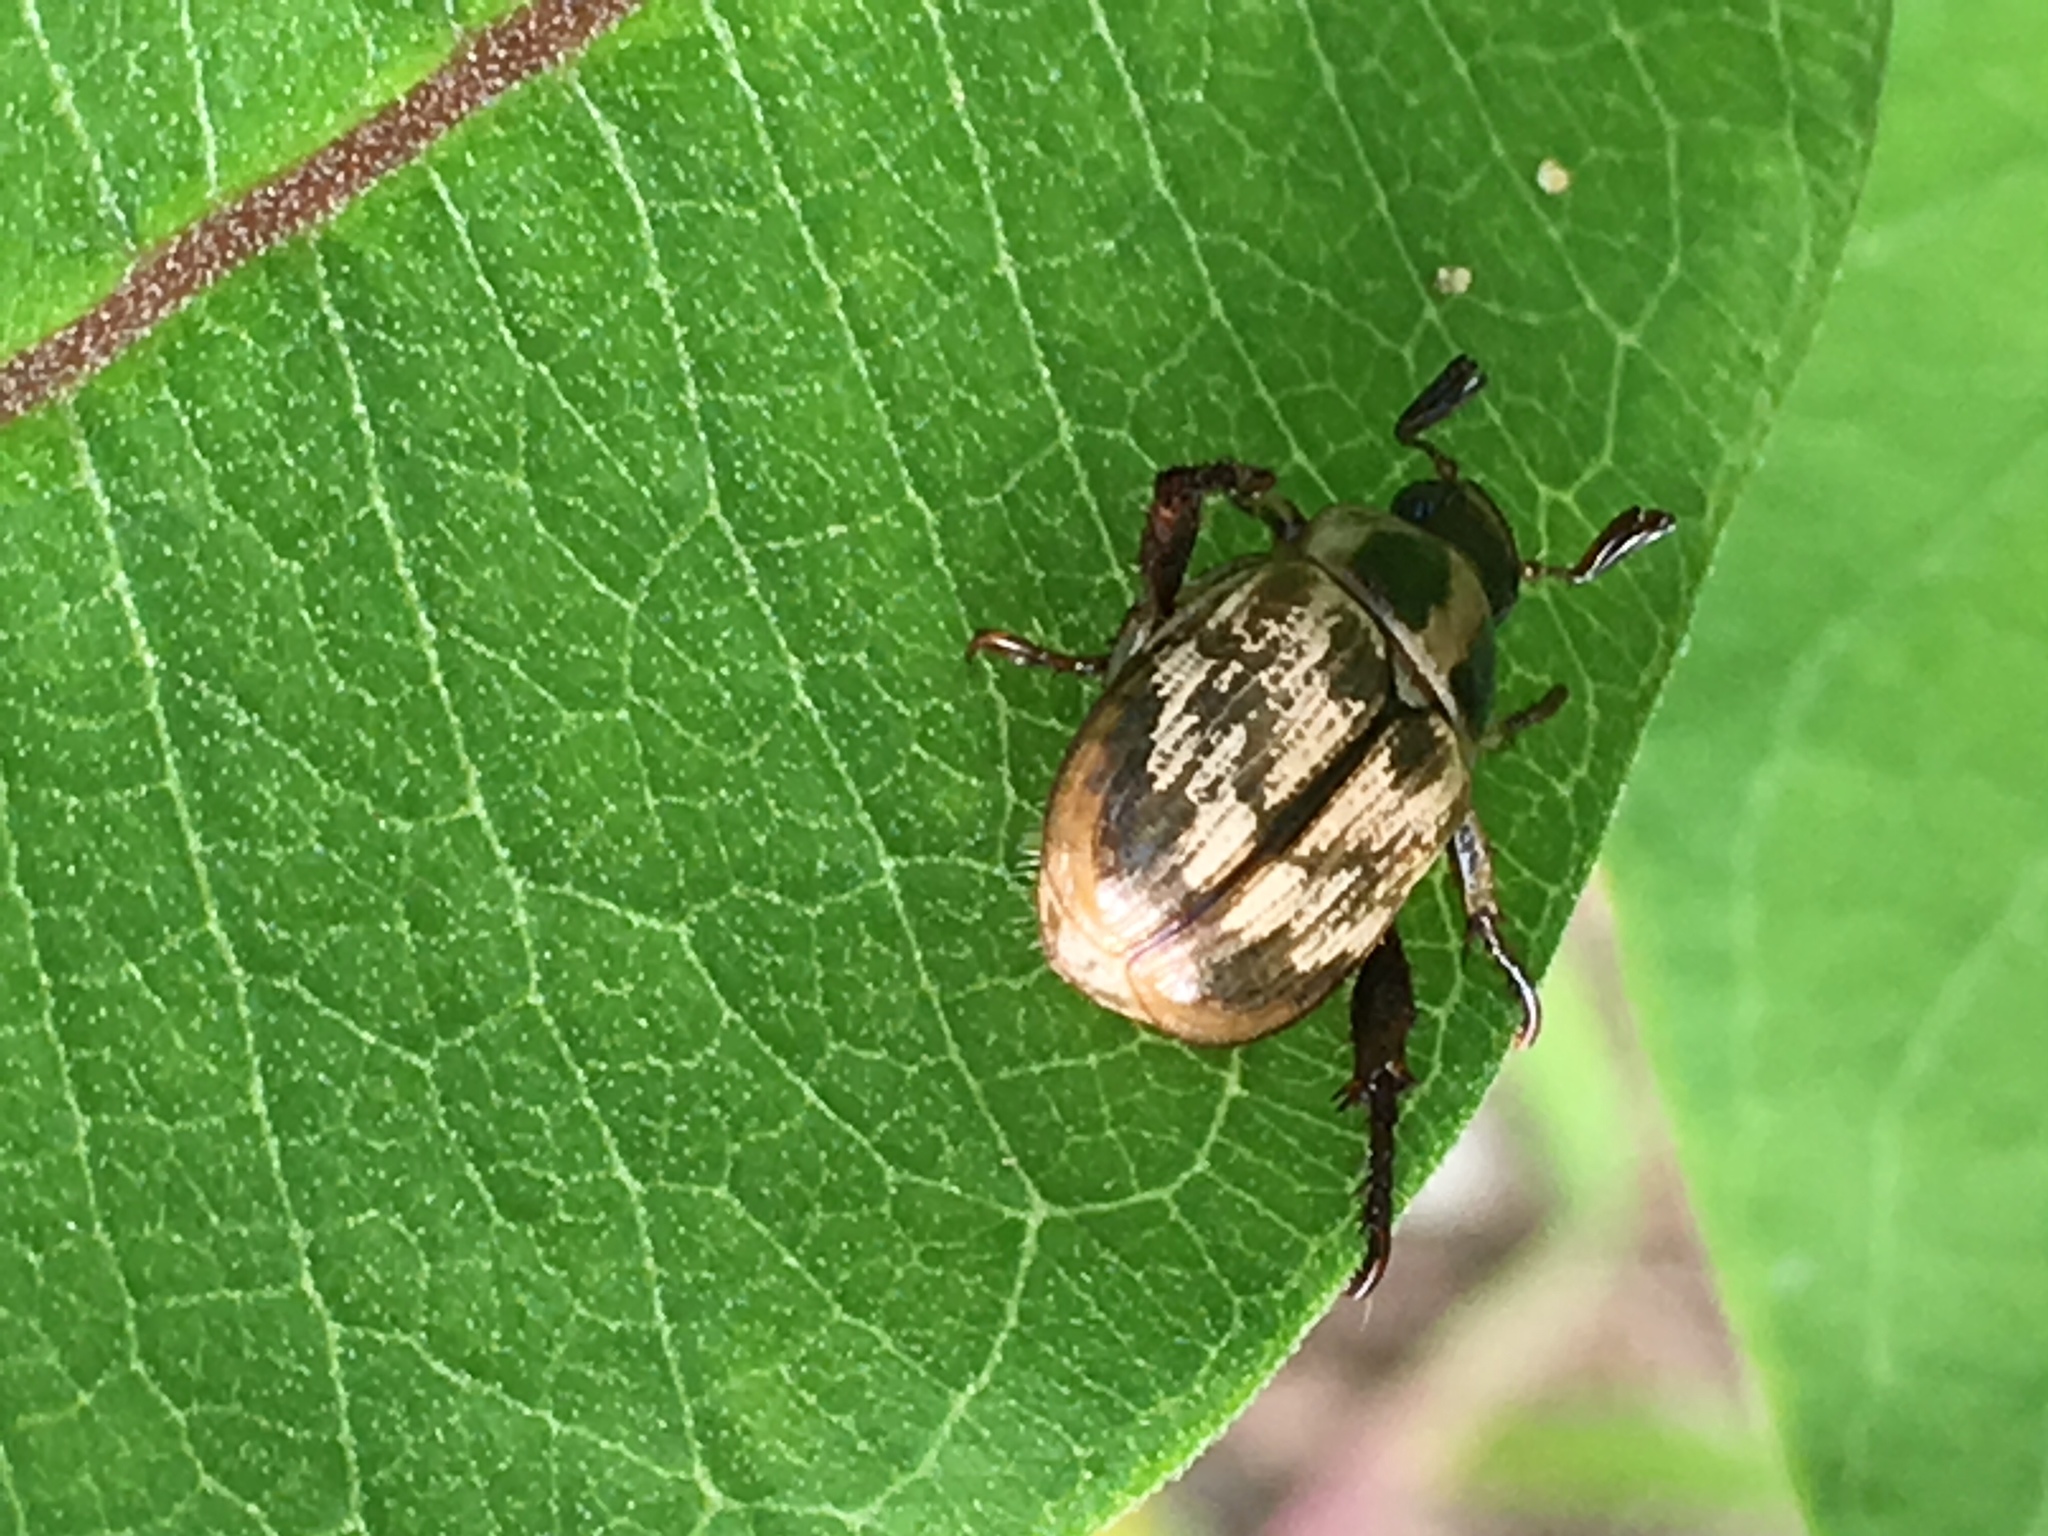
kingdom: Animalia
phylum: Arthropoda
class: Insecta
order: Coleoptera
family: Scarabaeidae
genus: Exomala
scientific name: Exomala orientalis
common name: Oriental beetle
